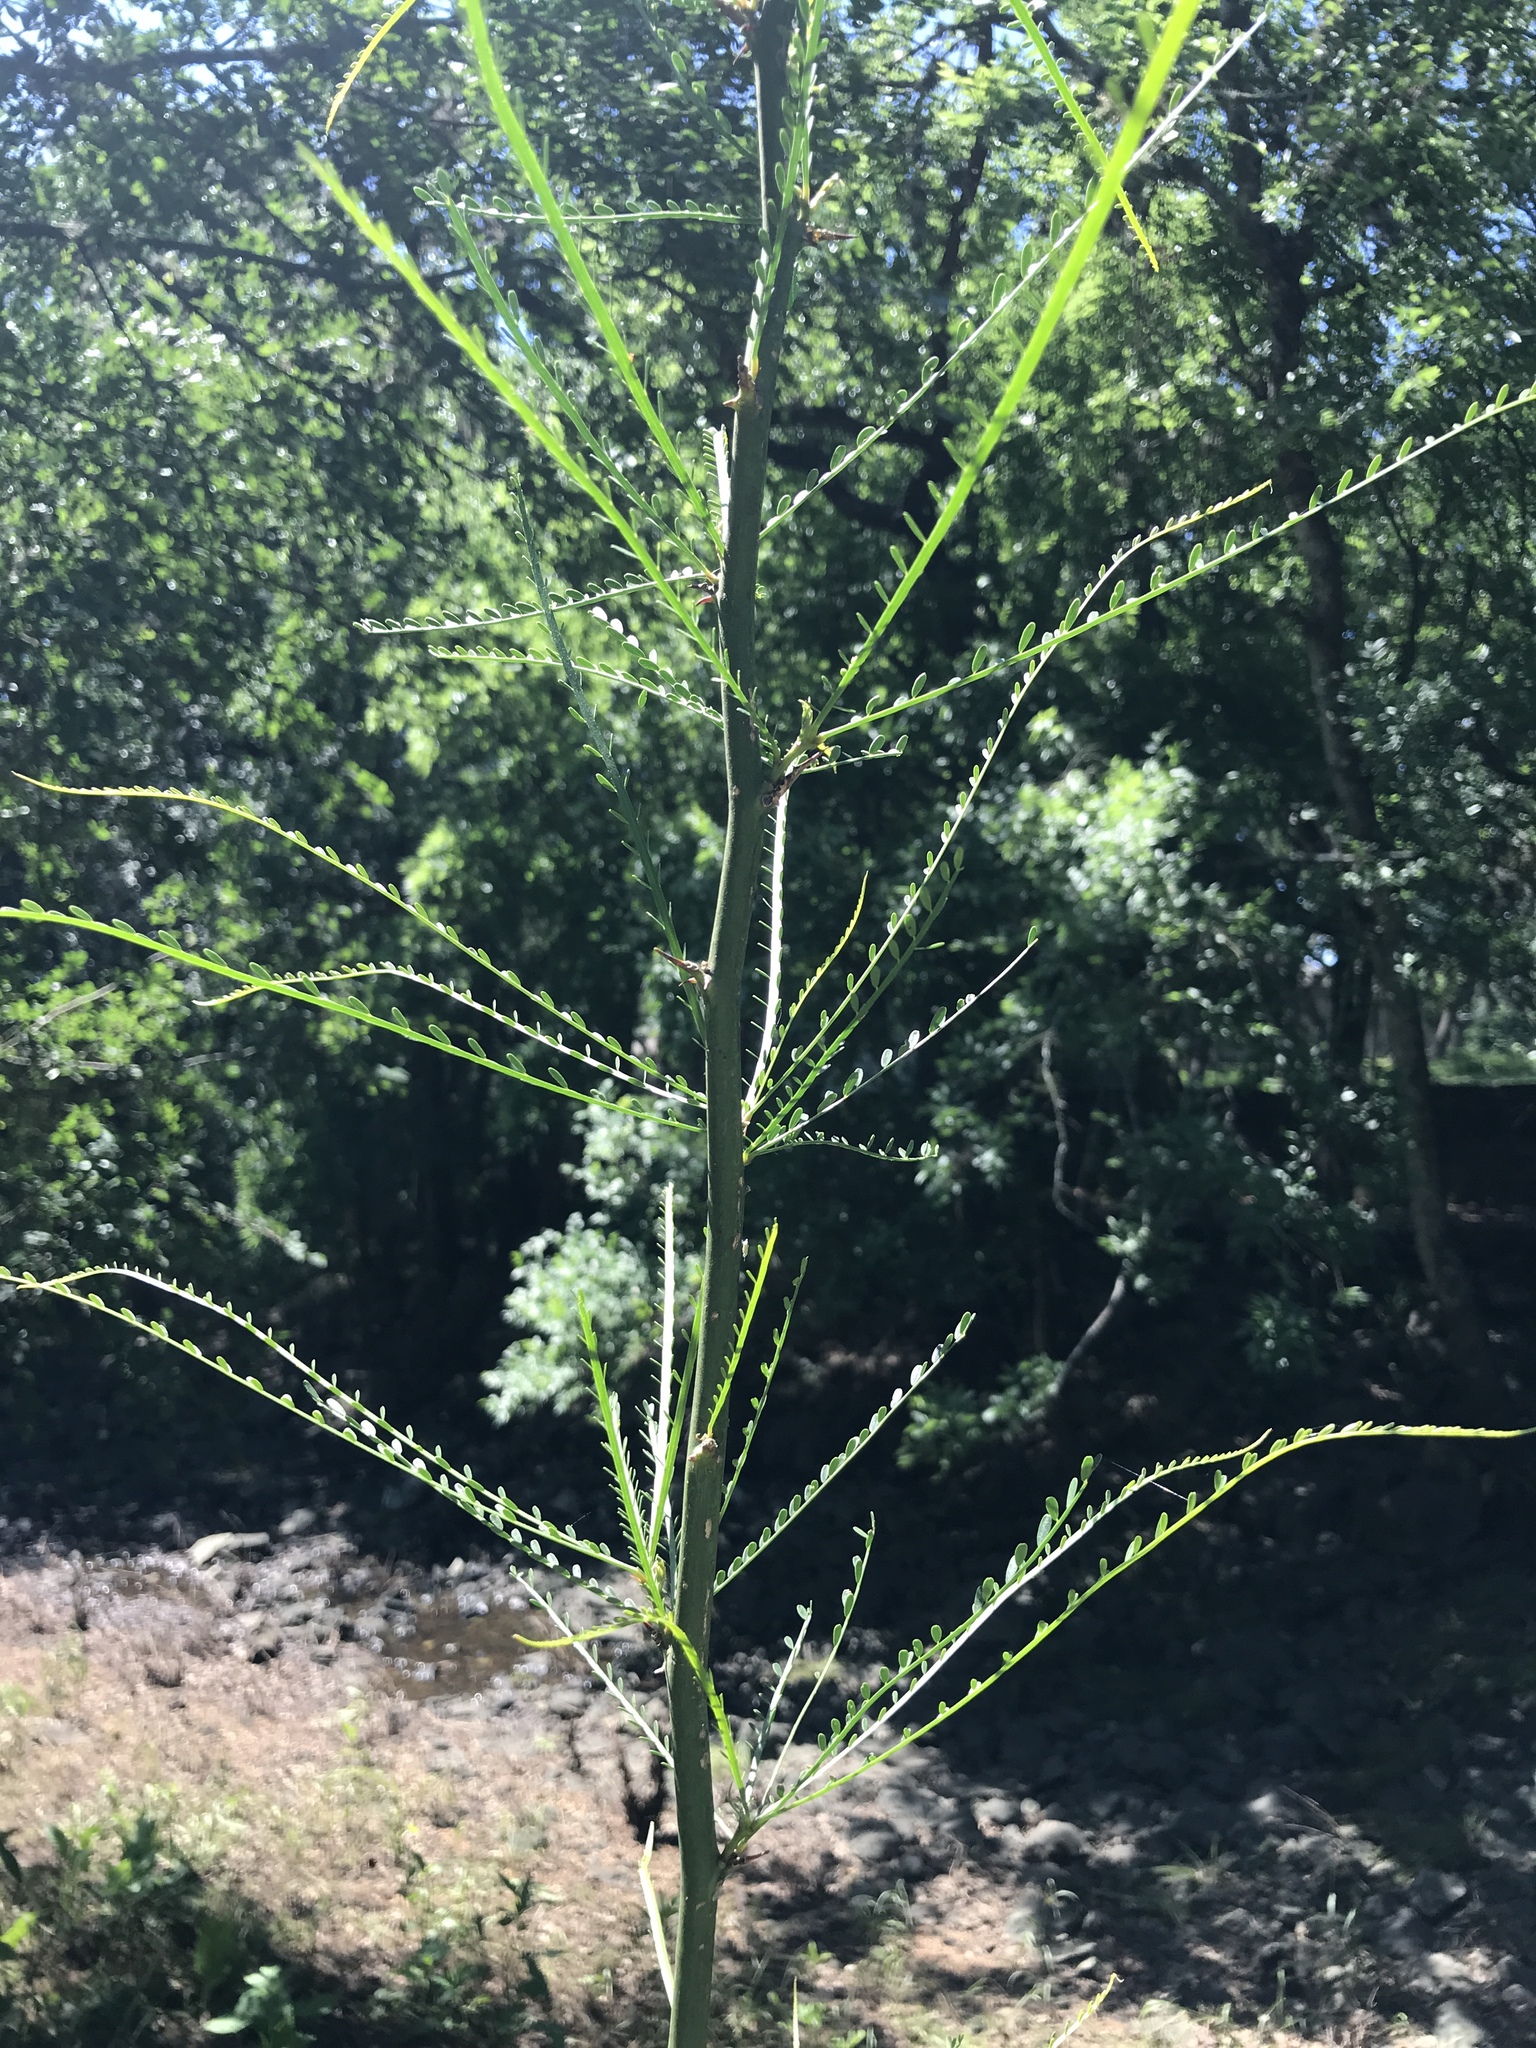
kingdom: Plantae
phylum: Tracheophyta
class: Magnoliopsida
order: Fabales
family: Fabaceae
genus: Parkinsonia
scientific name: Parkinsonia aculeata
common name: Jerusalem thorn
